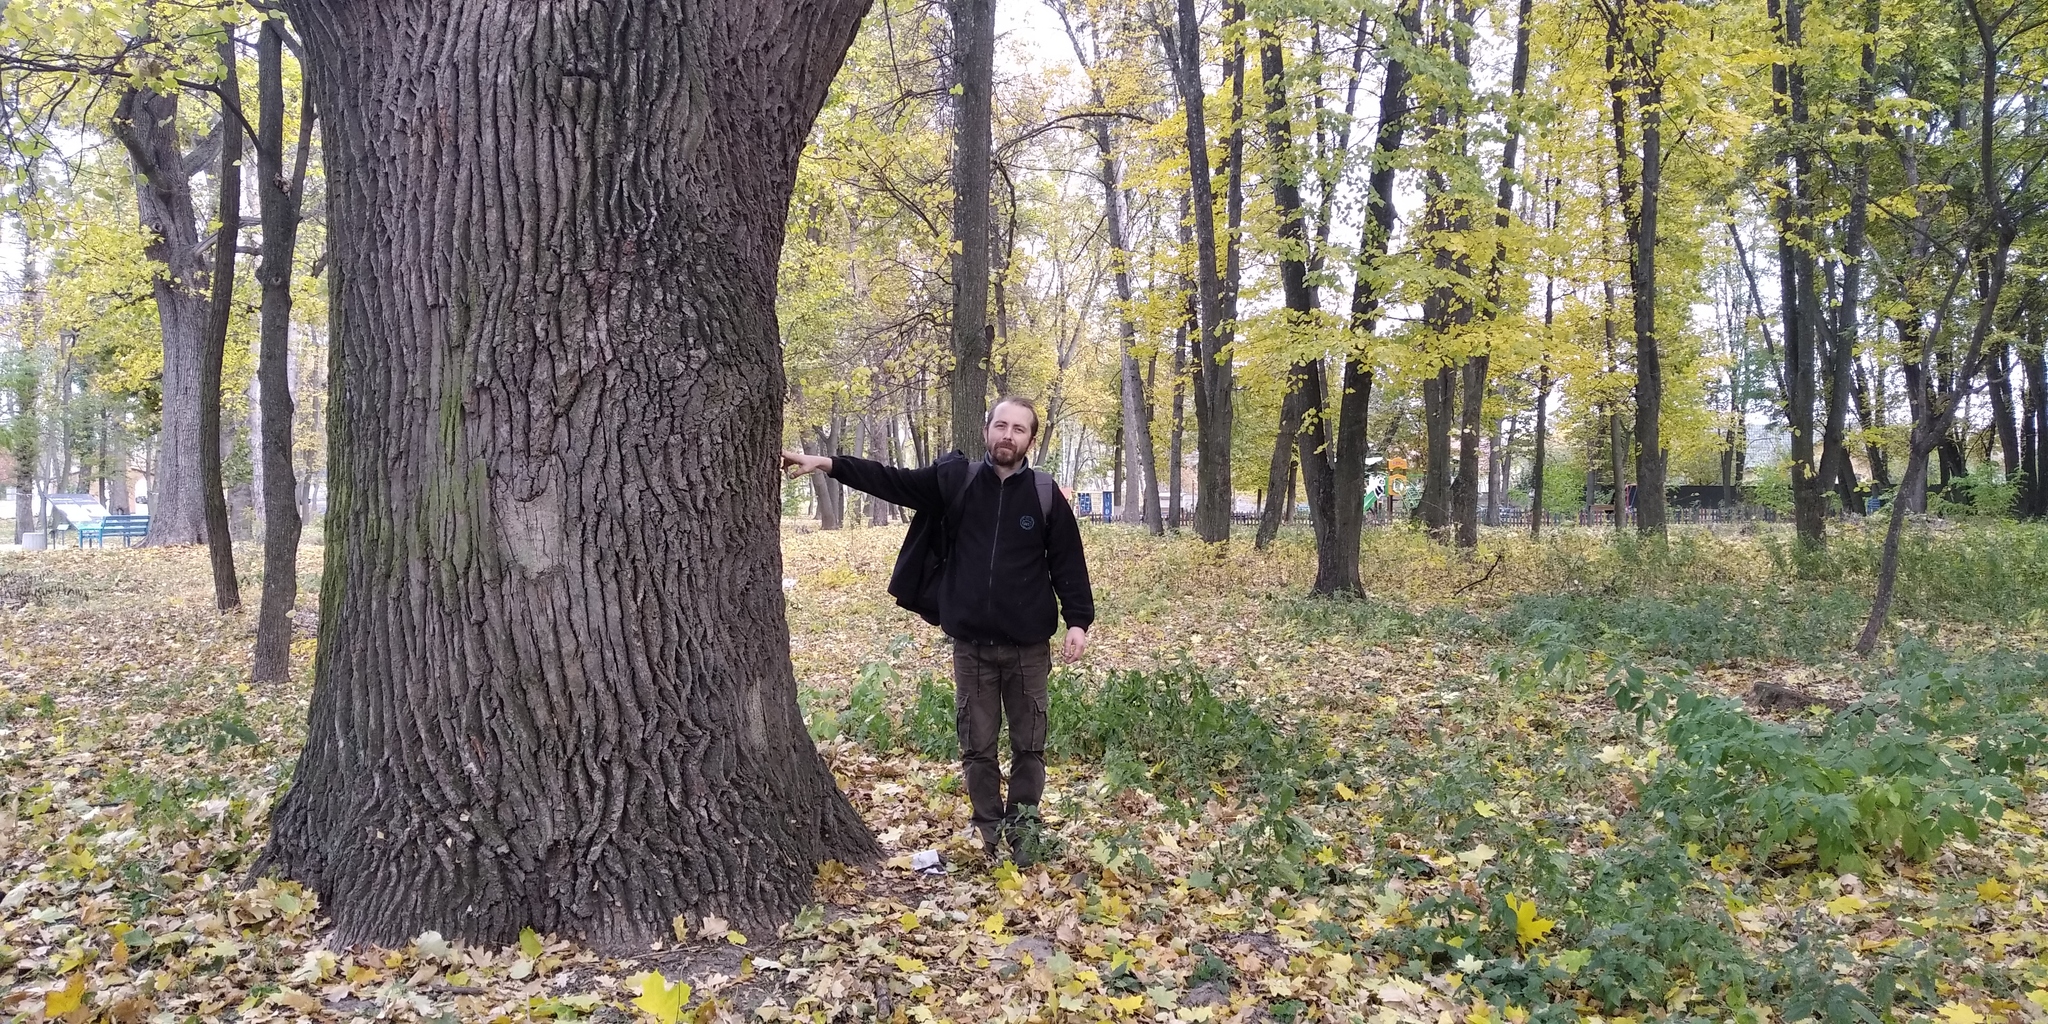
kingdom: Plantae
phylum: Tracheophyta
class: Magnoliopsida
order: Fagales
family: Fagaceae
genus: Quercus
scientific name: Quercus robur
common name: Pedunculate oak
